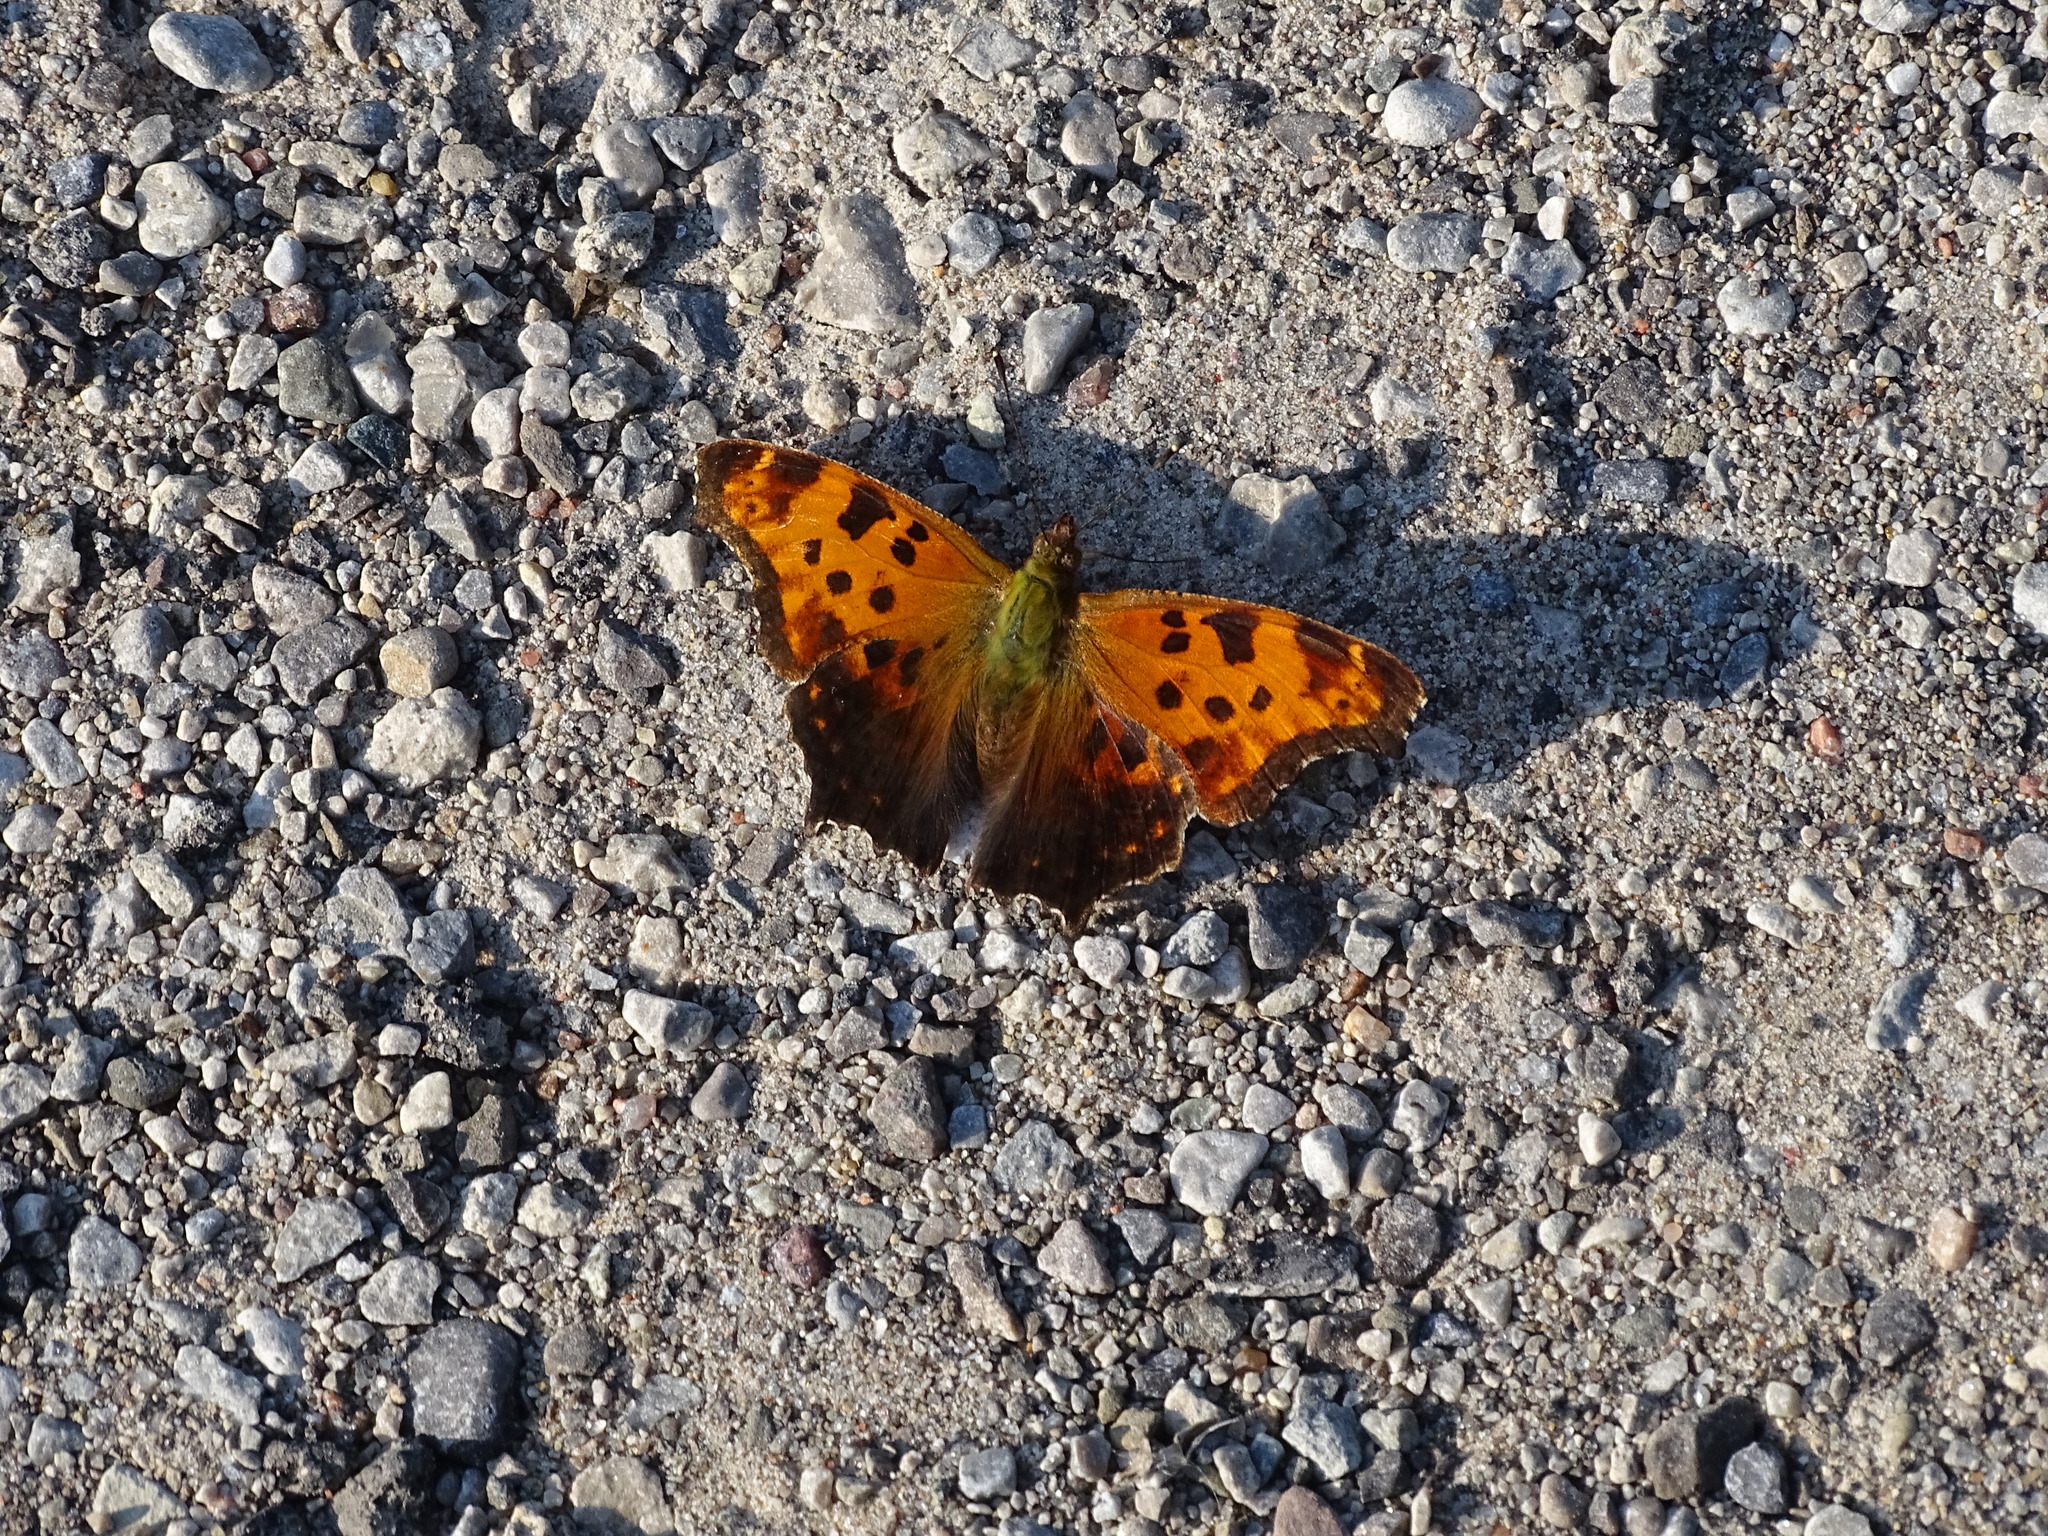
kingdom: Animalia
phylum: Arthropoda
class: Insecta
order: Lepidoptera
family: Nymphalidae
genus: Polygonia
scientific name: Polygonia comma
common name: Eastern comma
